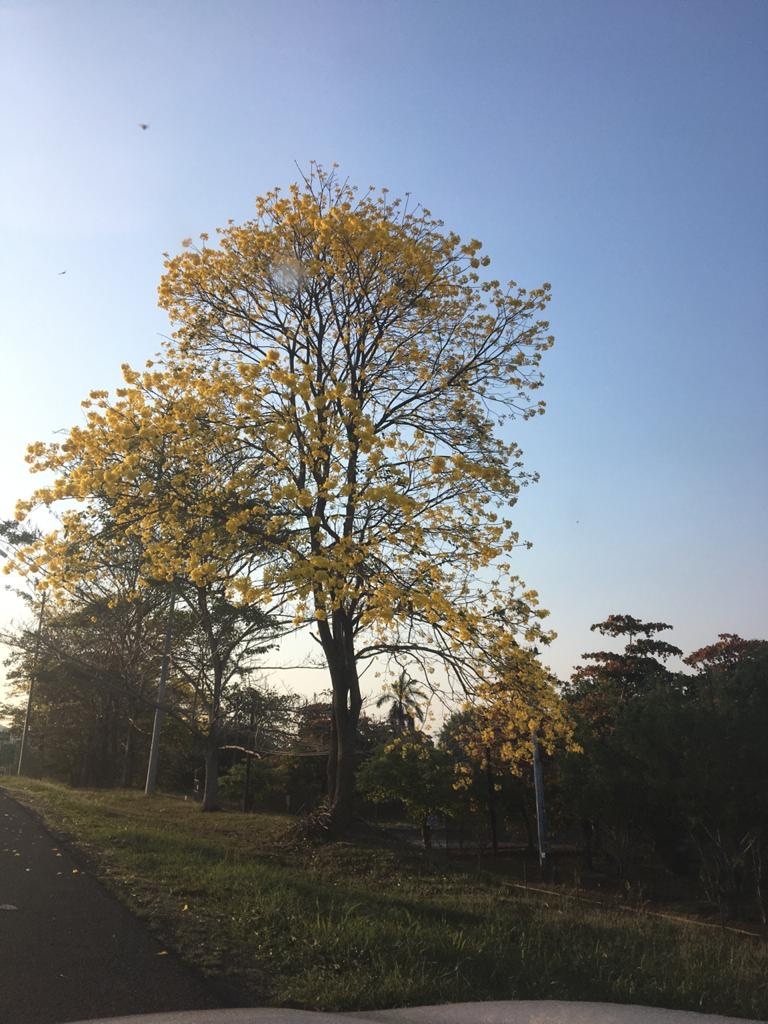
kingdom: Plantae
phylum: Tracheophyta
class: Magnoliopsida
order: Lamiales
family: Bignoniaceae
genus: Handroanthus
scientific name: Handroanthus guayacan
